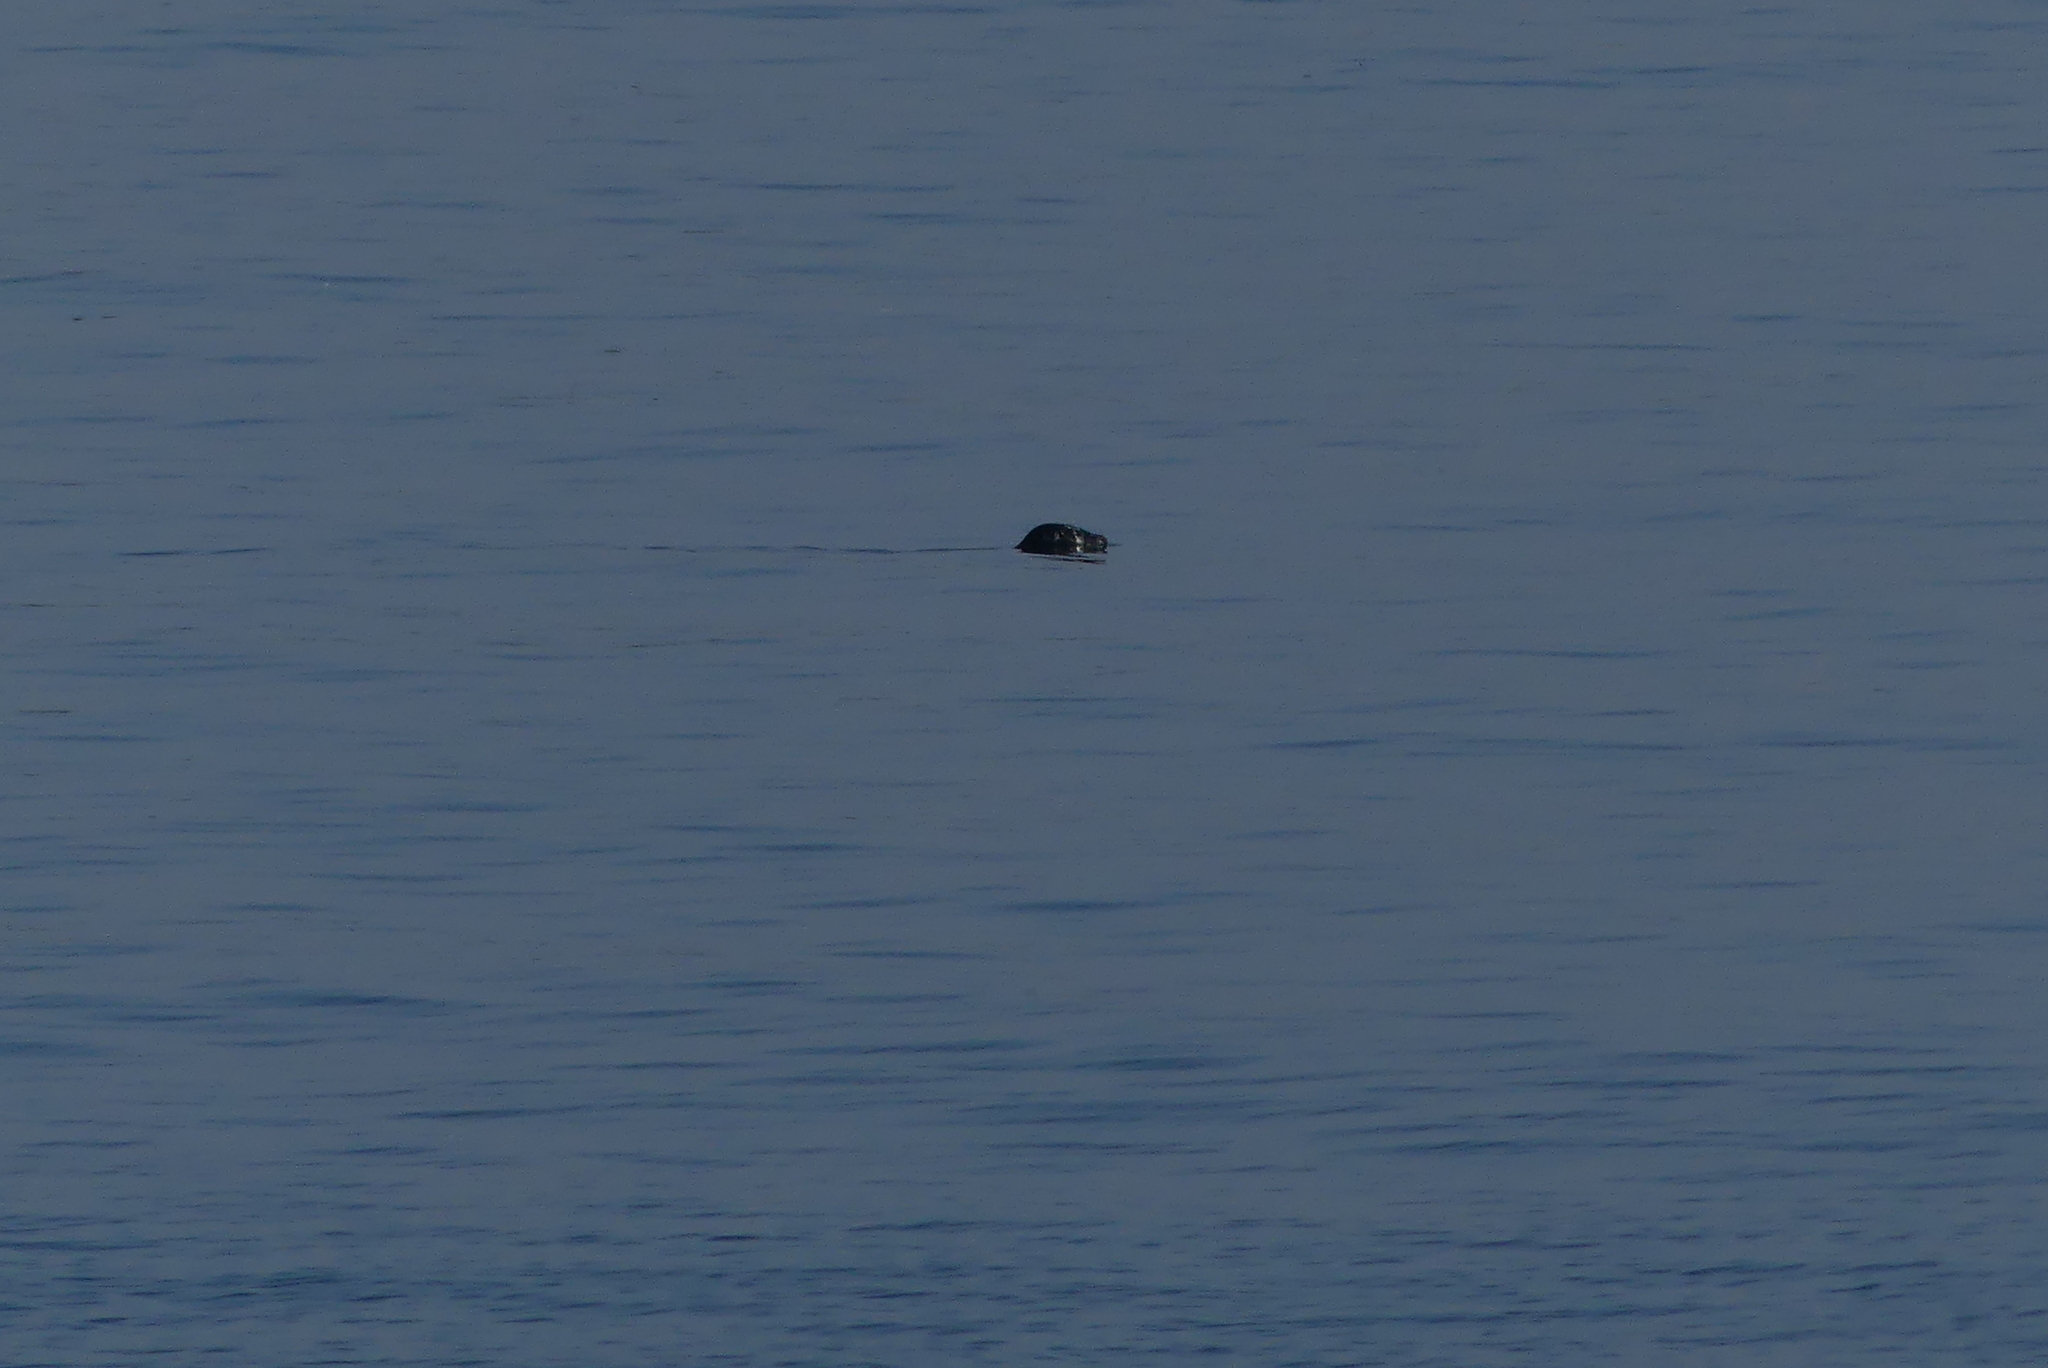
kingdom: Animalia
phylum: Chordata
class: Mammalia
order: Carnivora
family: Phocidae
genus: Phoca
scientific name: Phoca vitulina
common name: Harbor seal
